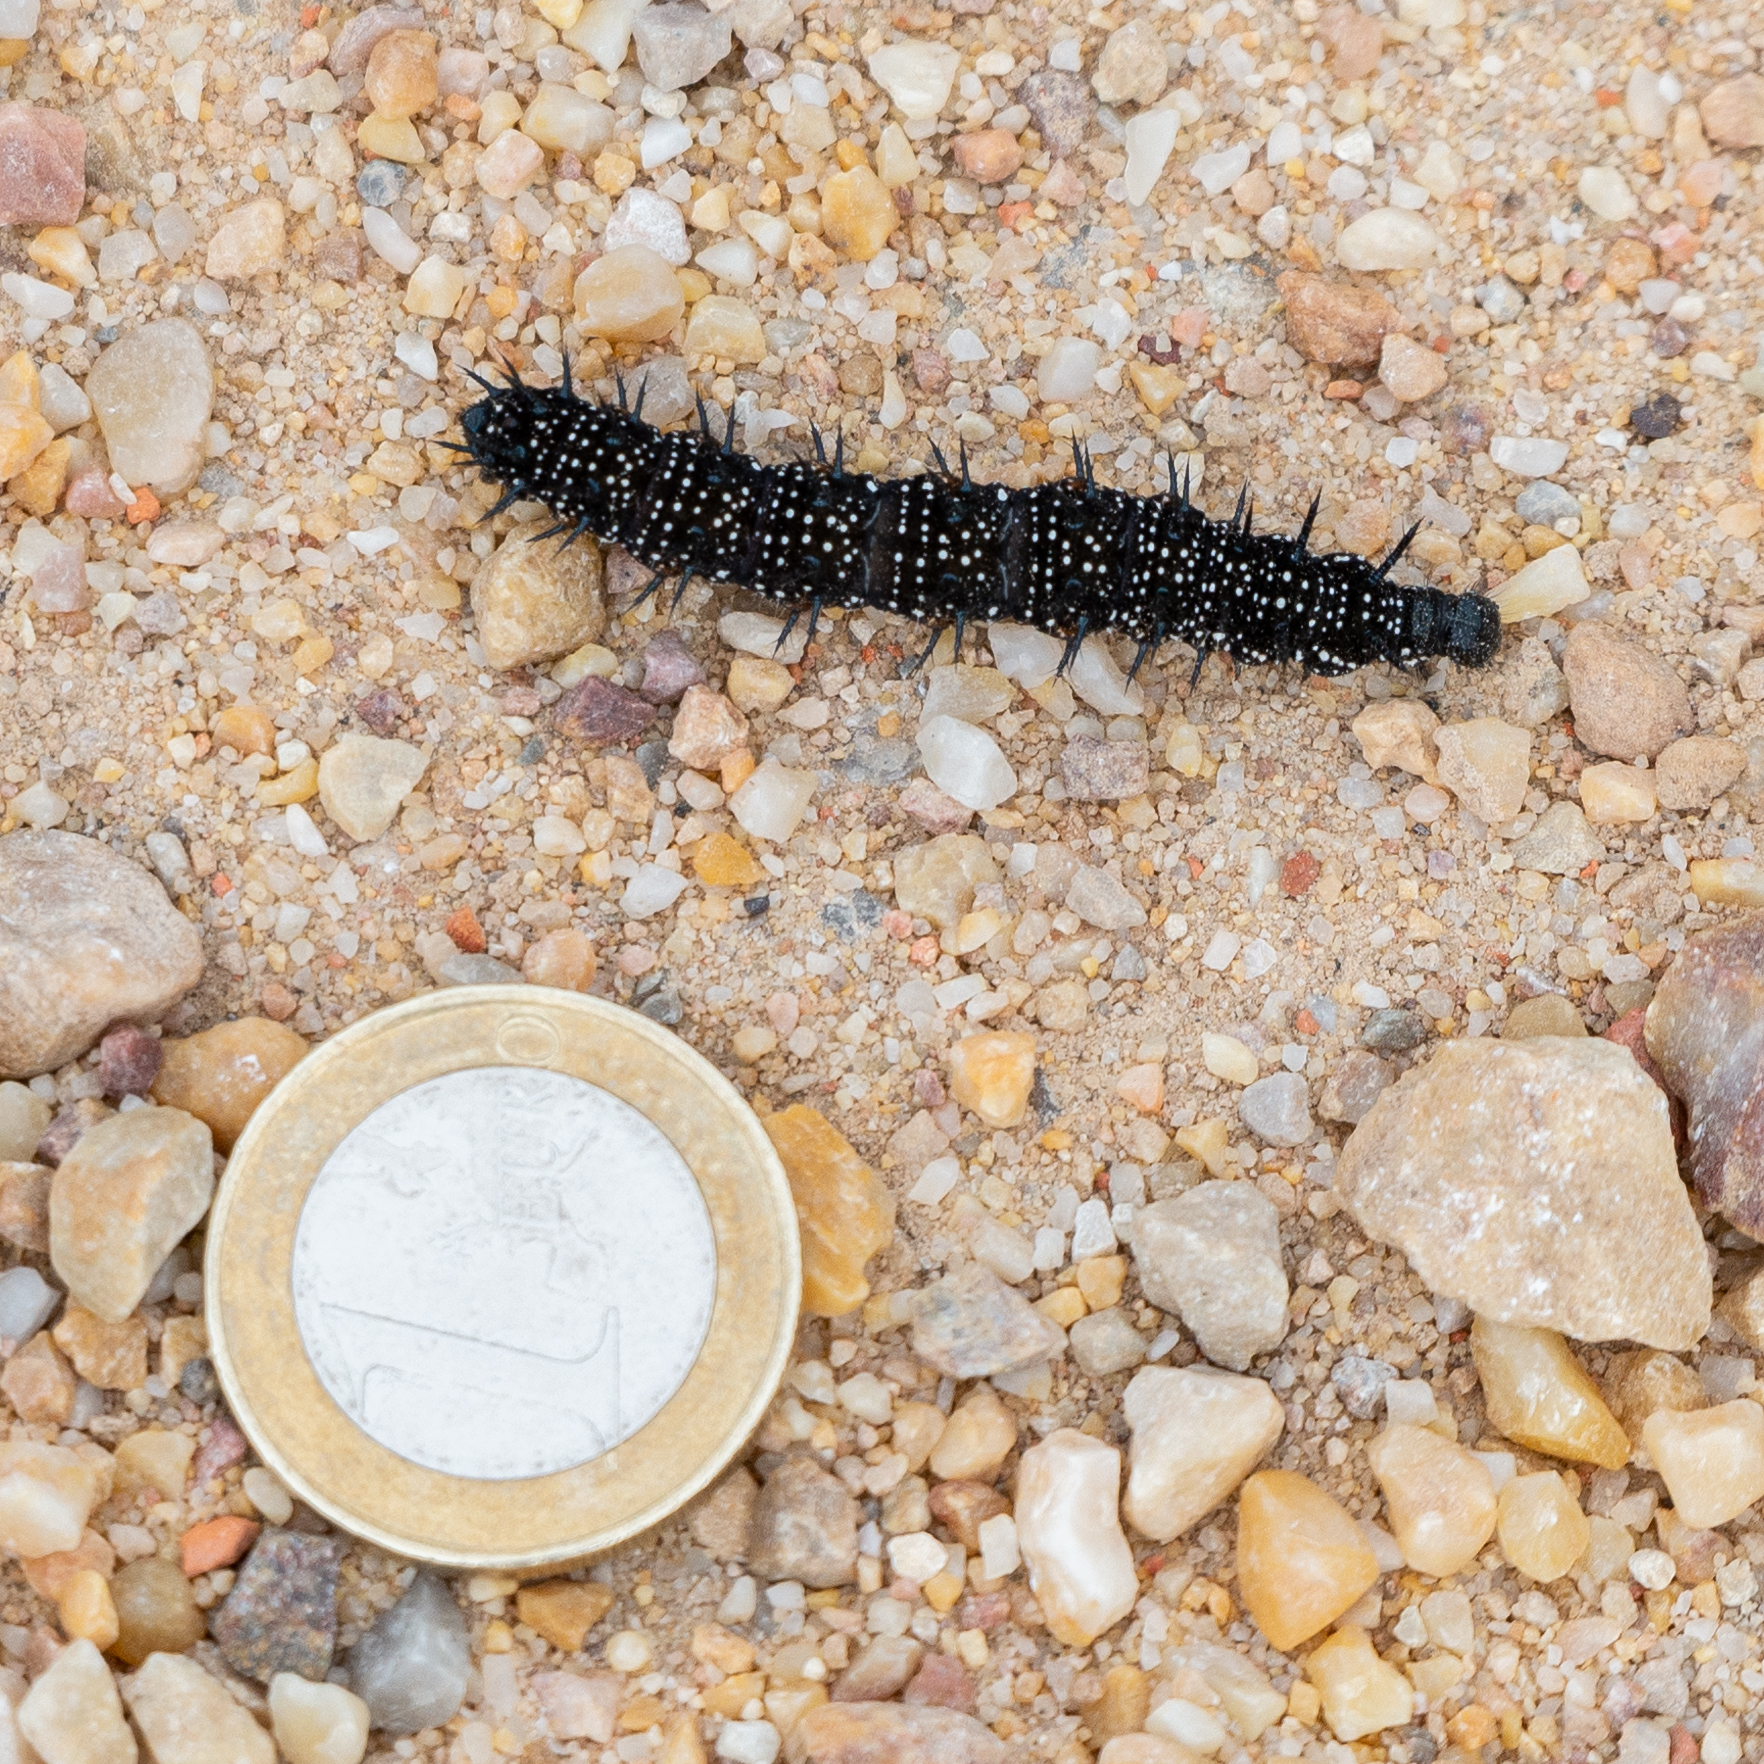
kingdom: Animalia
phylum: Arthropoda
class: Insecta
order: Lepidoptera
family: Nymphalidae
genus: Aglais
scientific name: Aglais io
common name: Peacock
